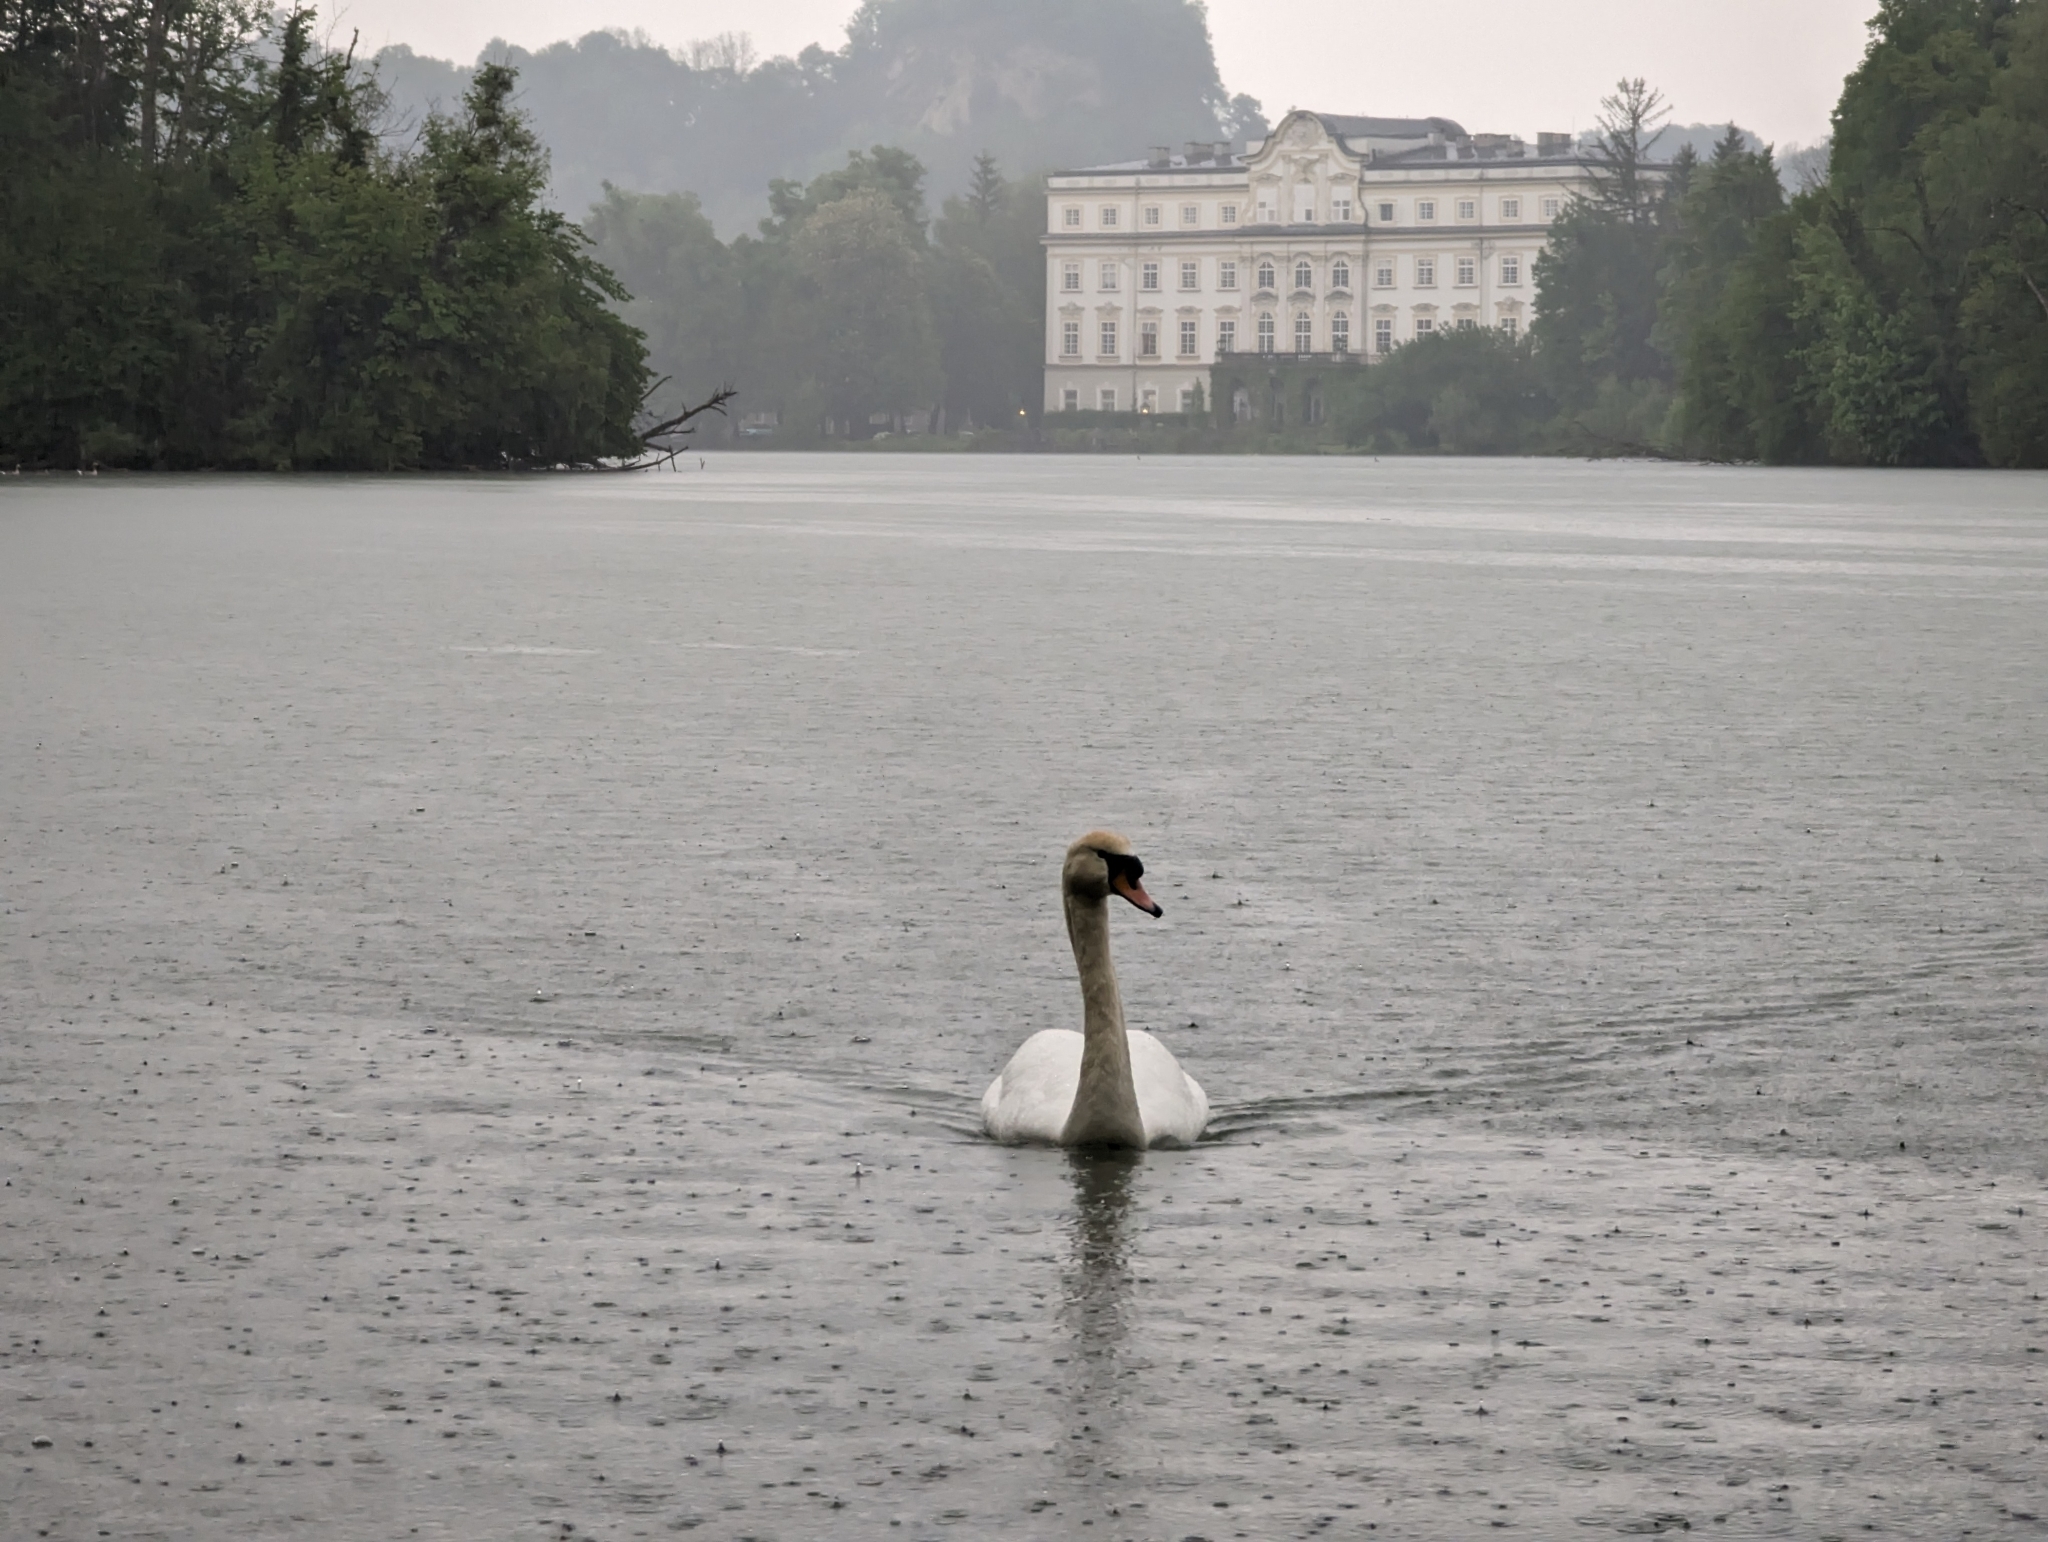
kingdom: Animalia
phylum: Chordata
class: Aves
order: Anseriformes
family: Anatidae
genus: Cygnus
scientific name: Cygnus olor
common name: Mute swan
